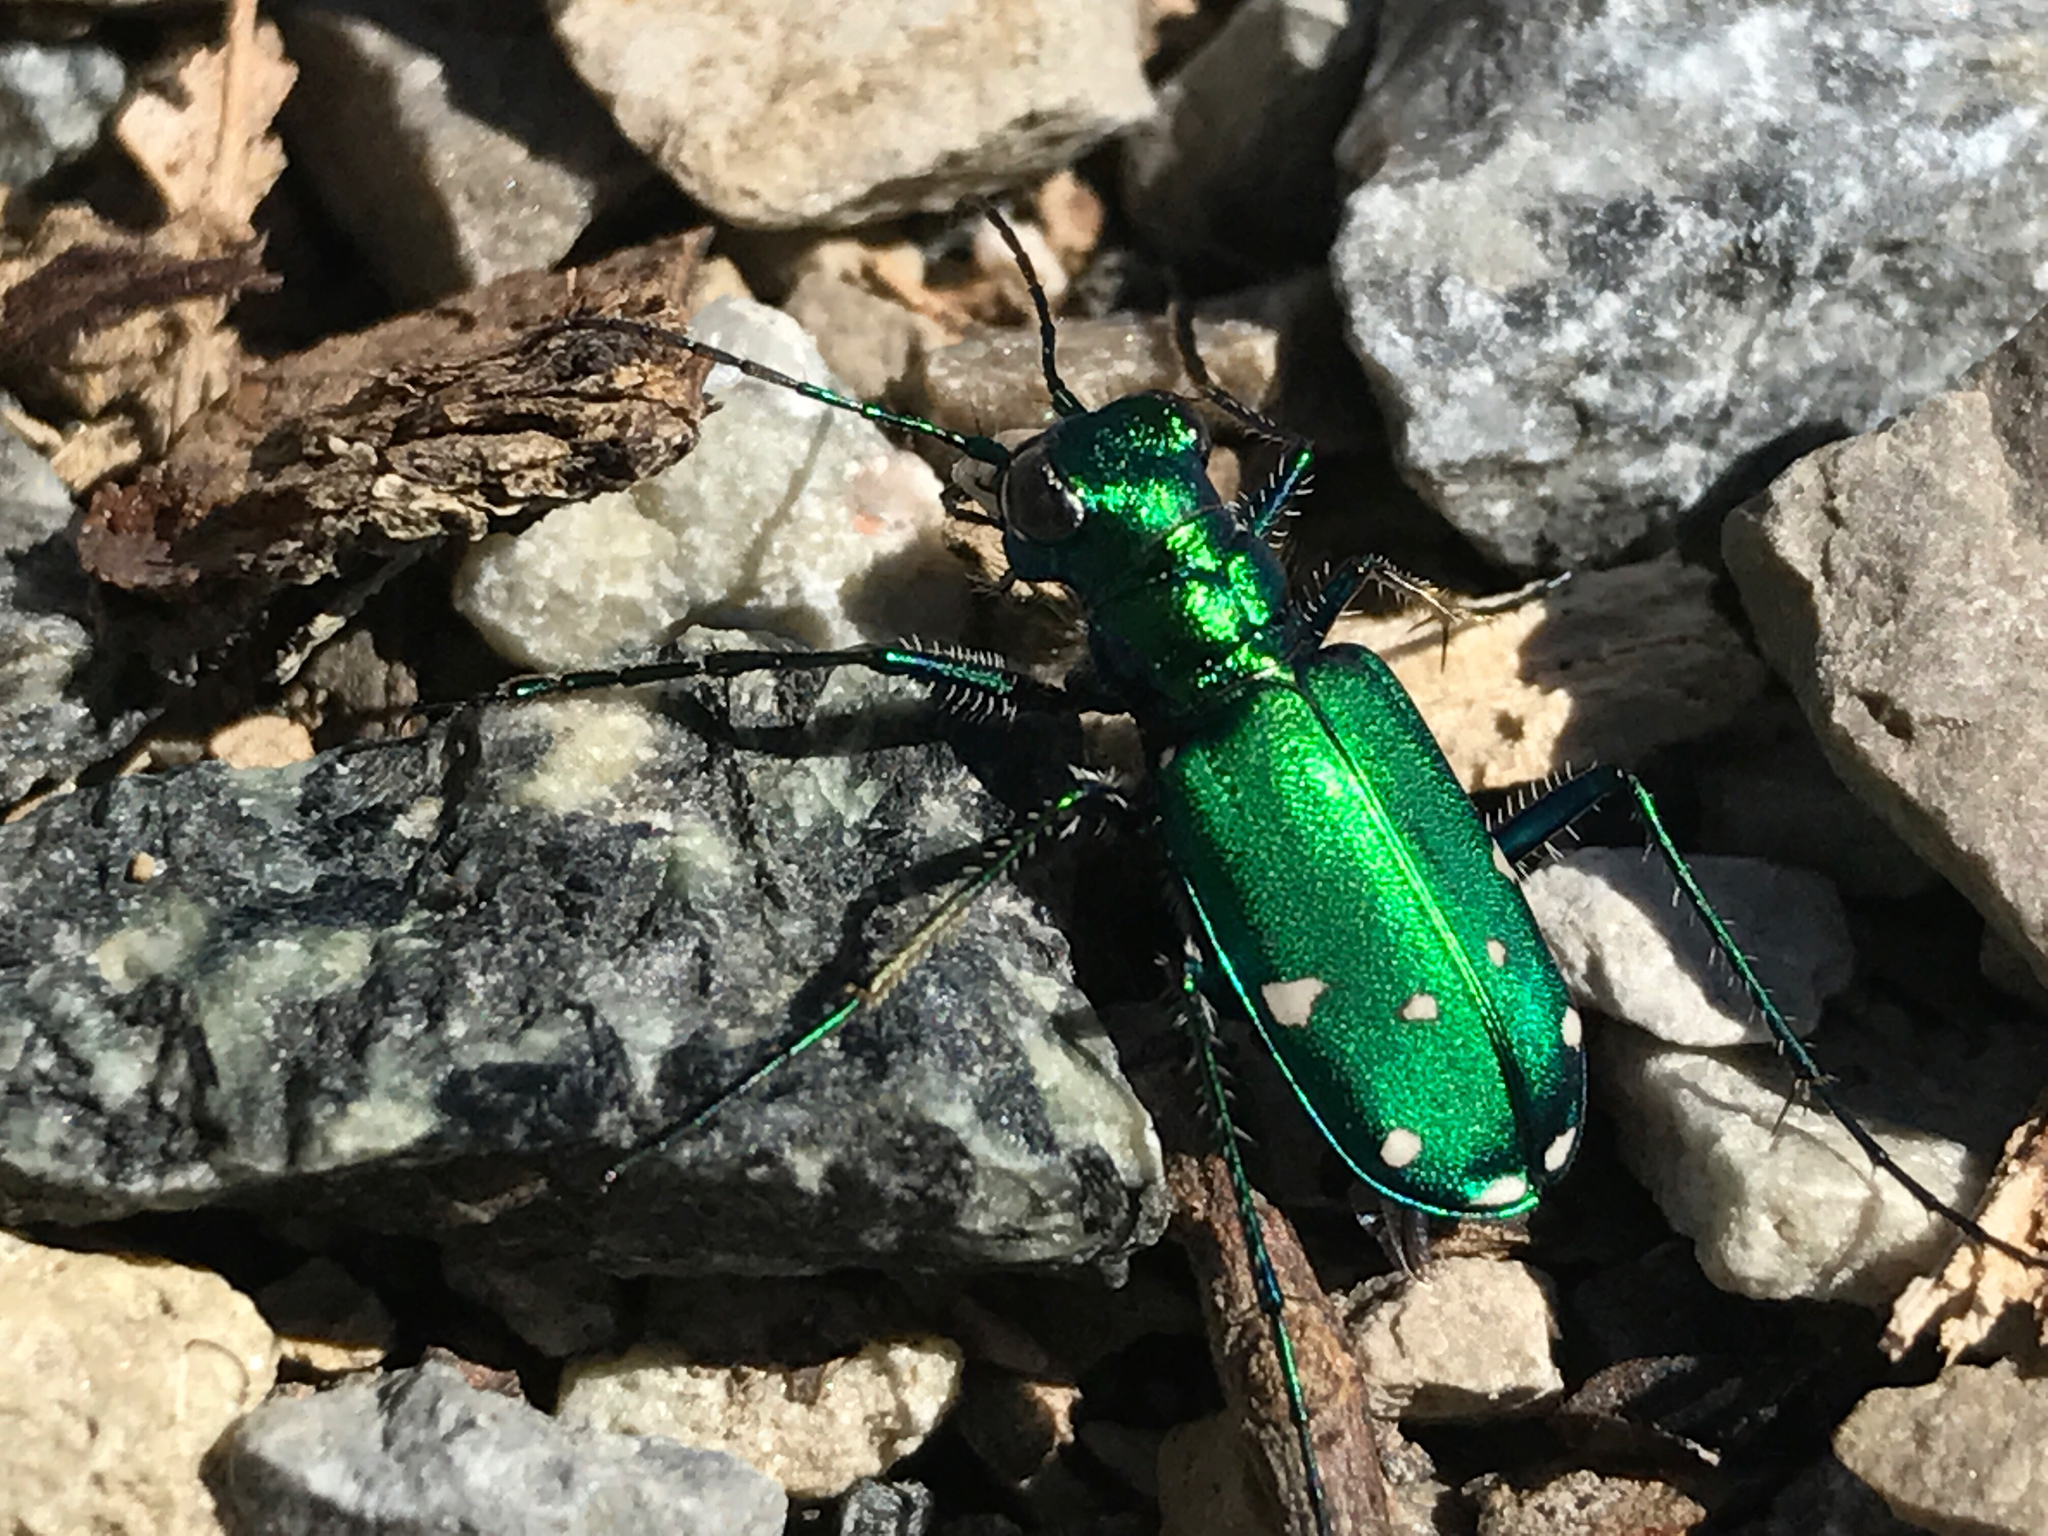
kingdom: Animalia
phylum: Arthropoda
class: Insecta
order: Coleoptera
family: Carabidae
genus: Cicindela
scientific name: Cicindela sexguttata
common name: Six-spotted tiger beetle
